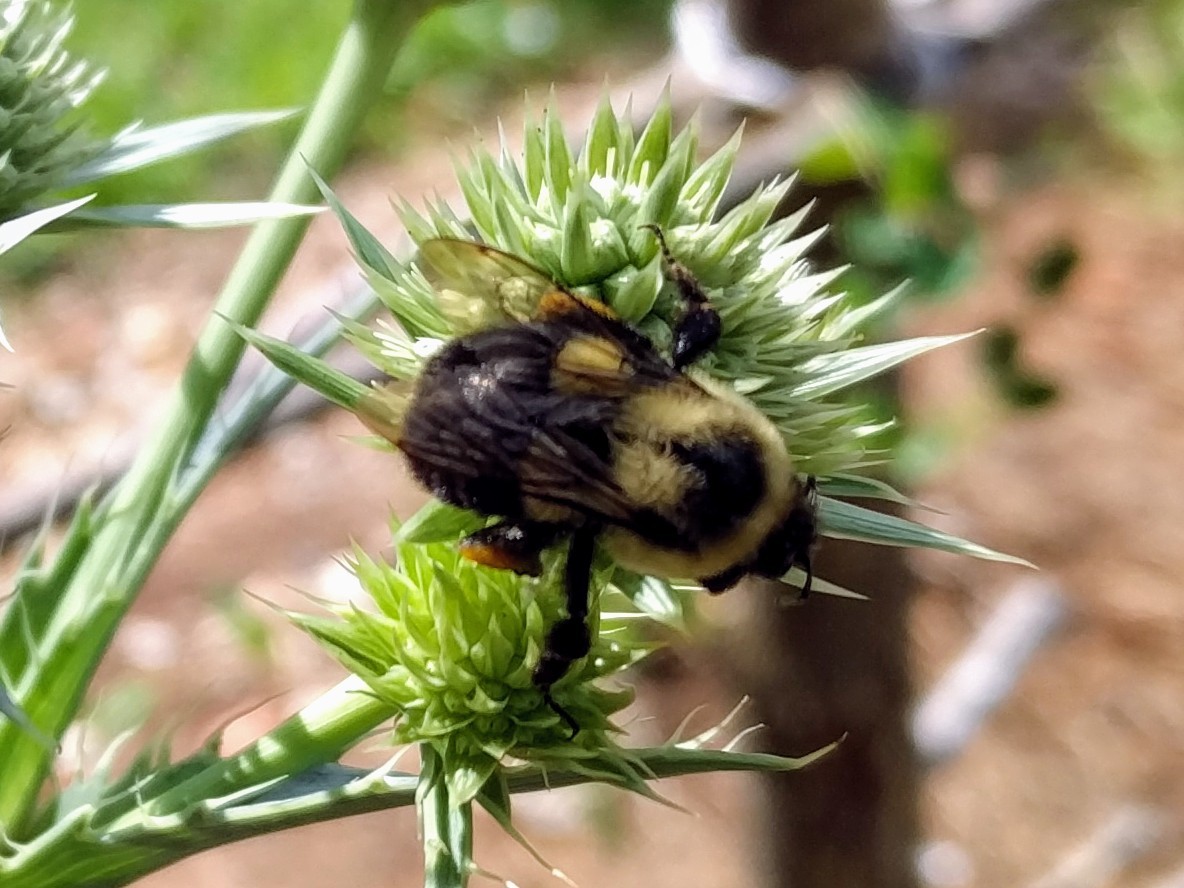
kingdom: Animalia
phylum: Arthropoda
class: Insecta
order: Hymenoptera
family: Apidae
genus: Bombus
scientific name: Bombus impatiens
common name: Common eastern bumble bee
